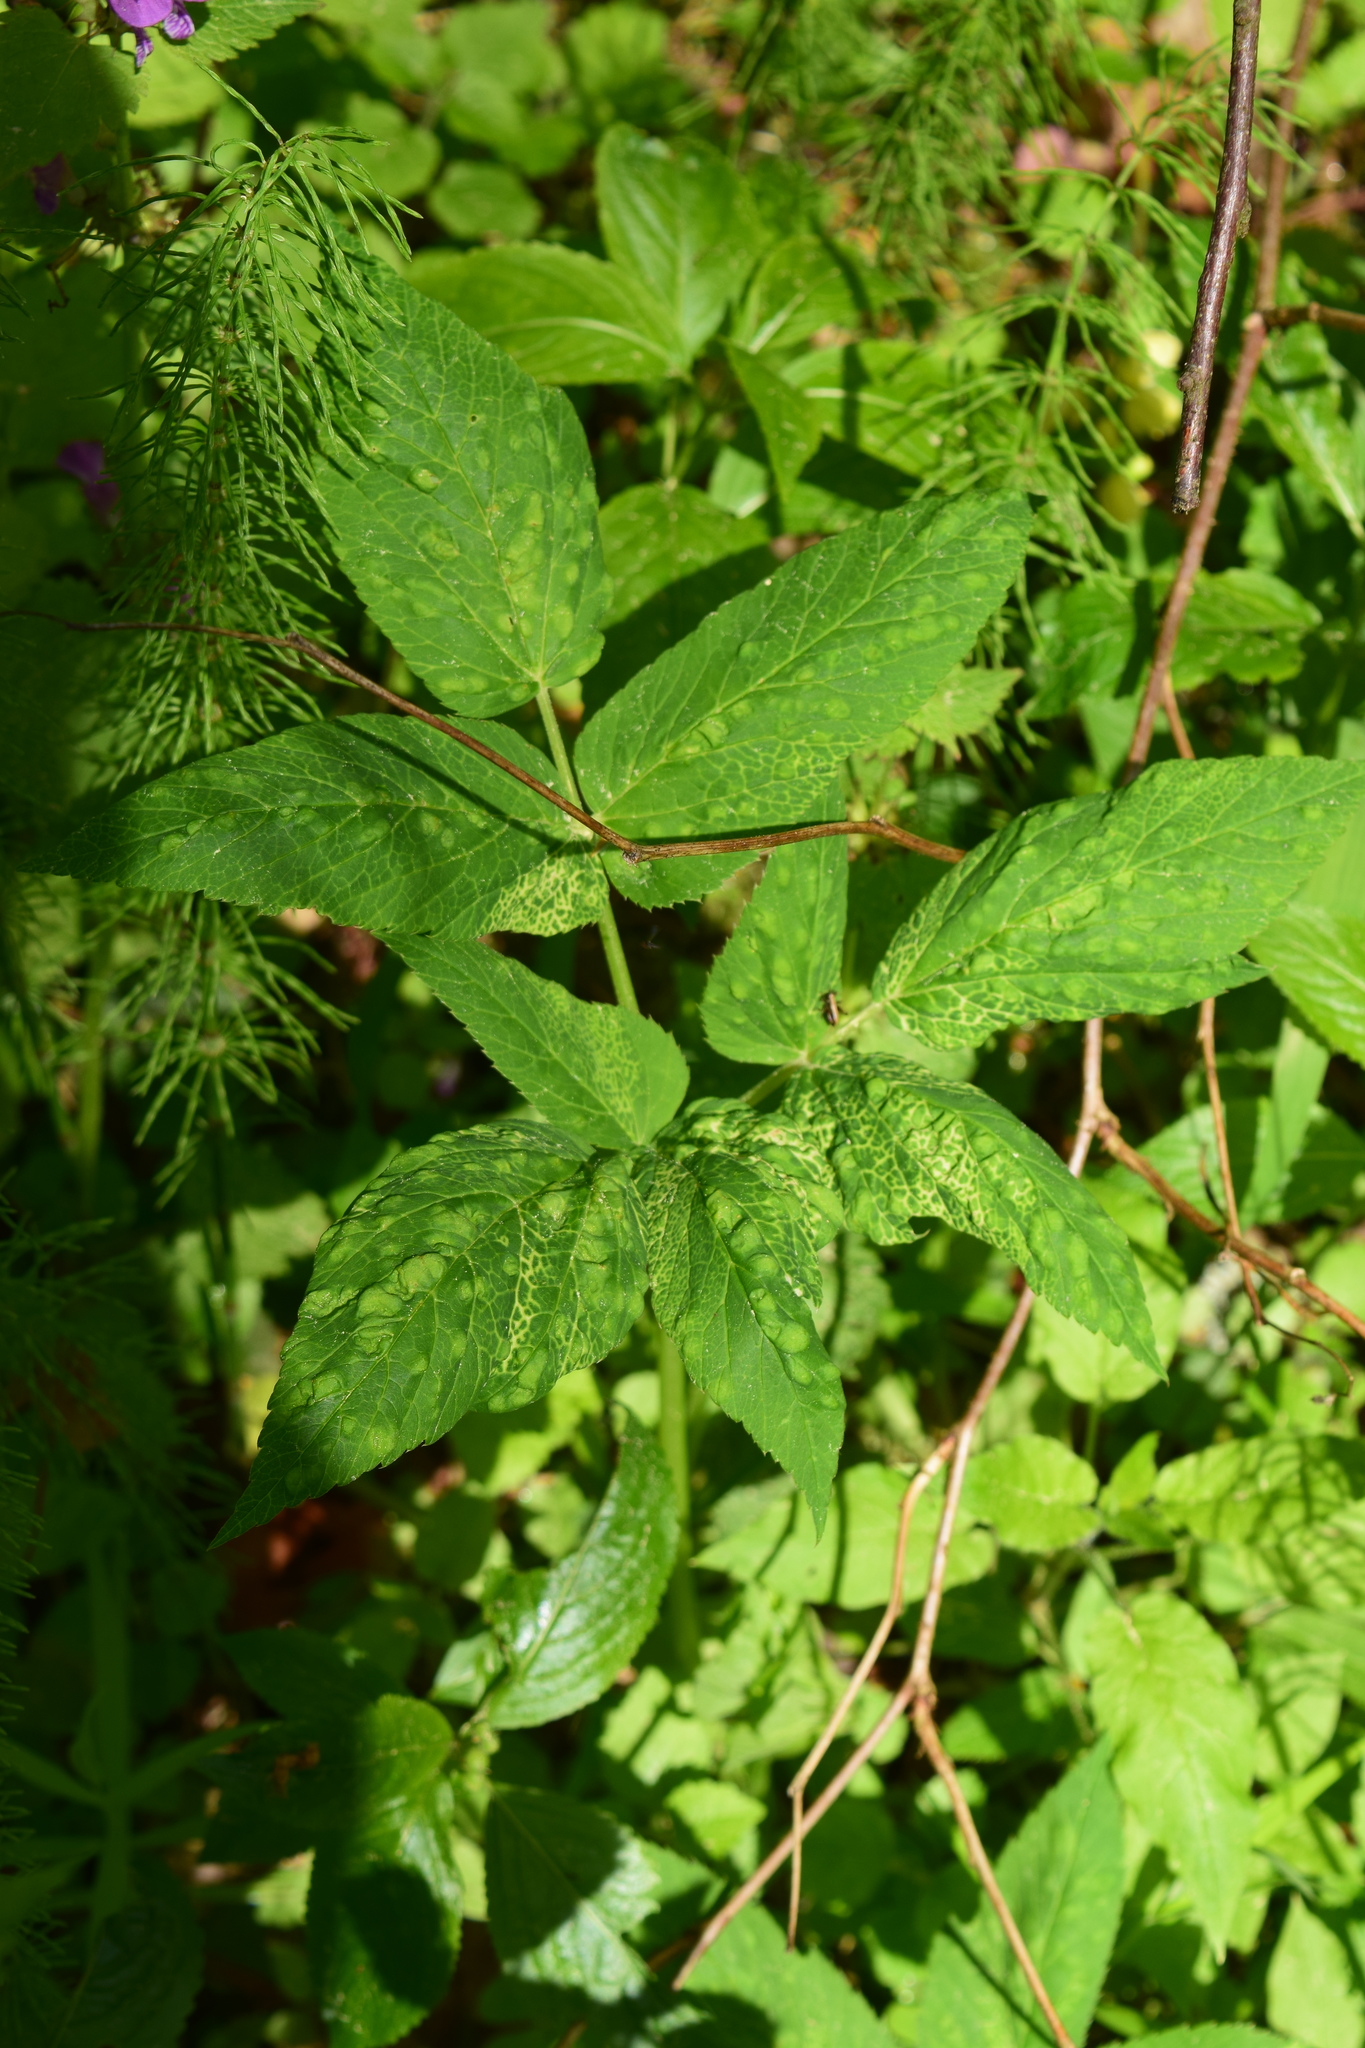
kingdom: Plantae
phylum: Tracheophyta
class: Magnoliopsida
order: Apiales
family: Apiaceae
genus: Aegopodium
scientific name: Aegopodium podagraria
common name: Ground-elder
